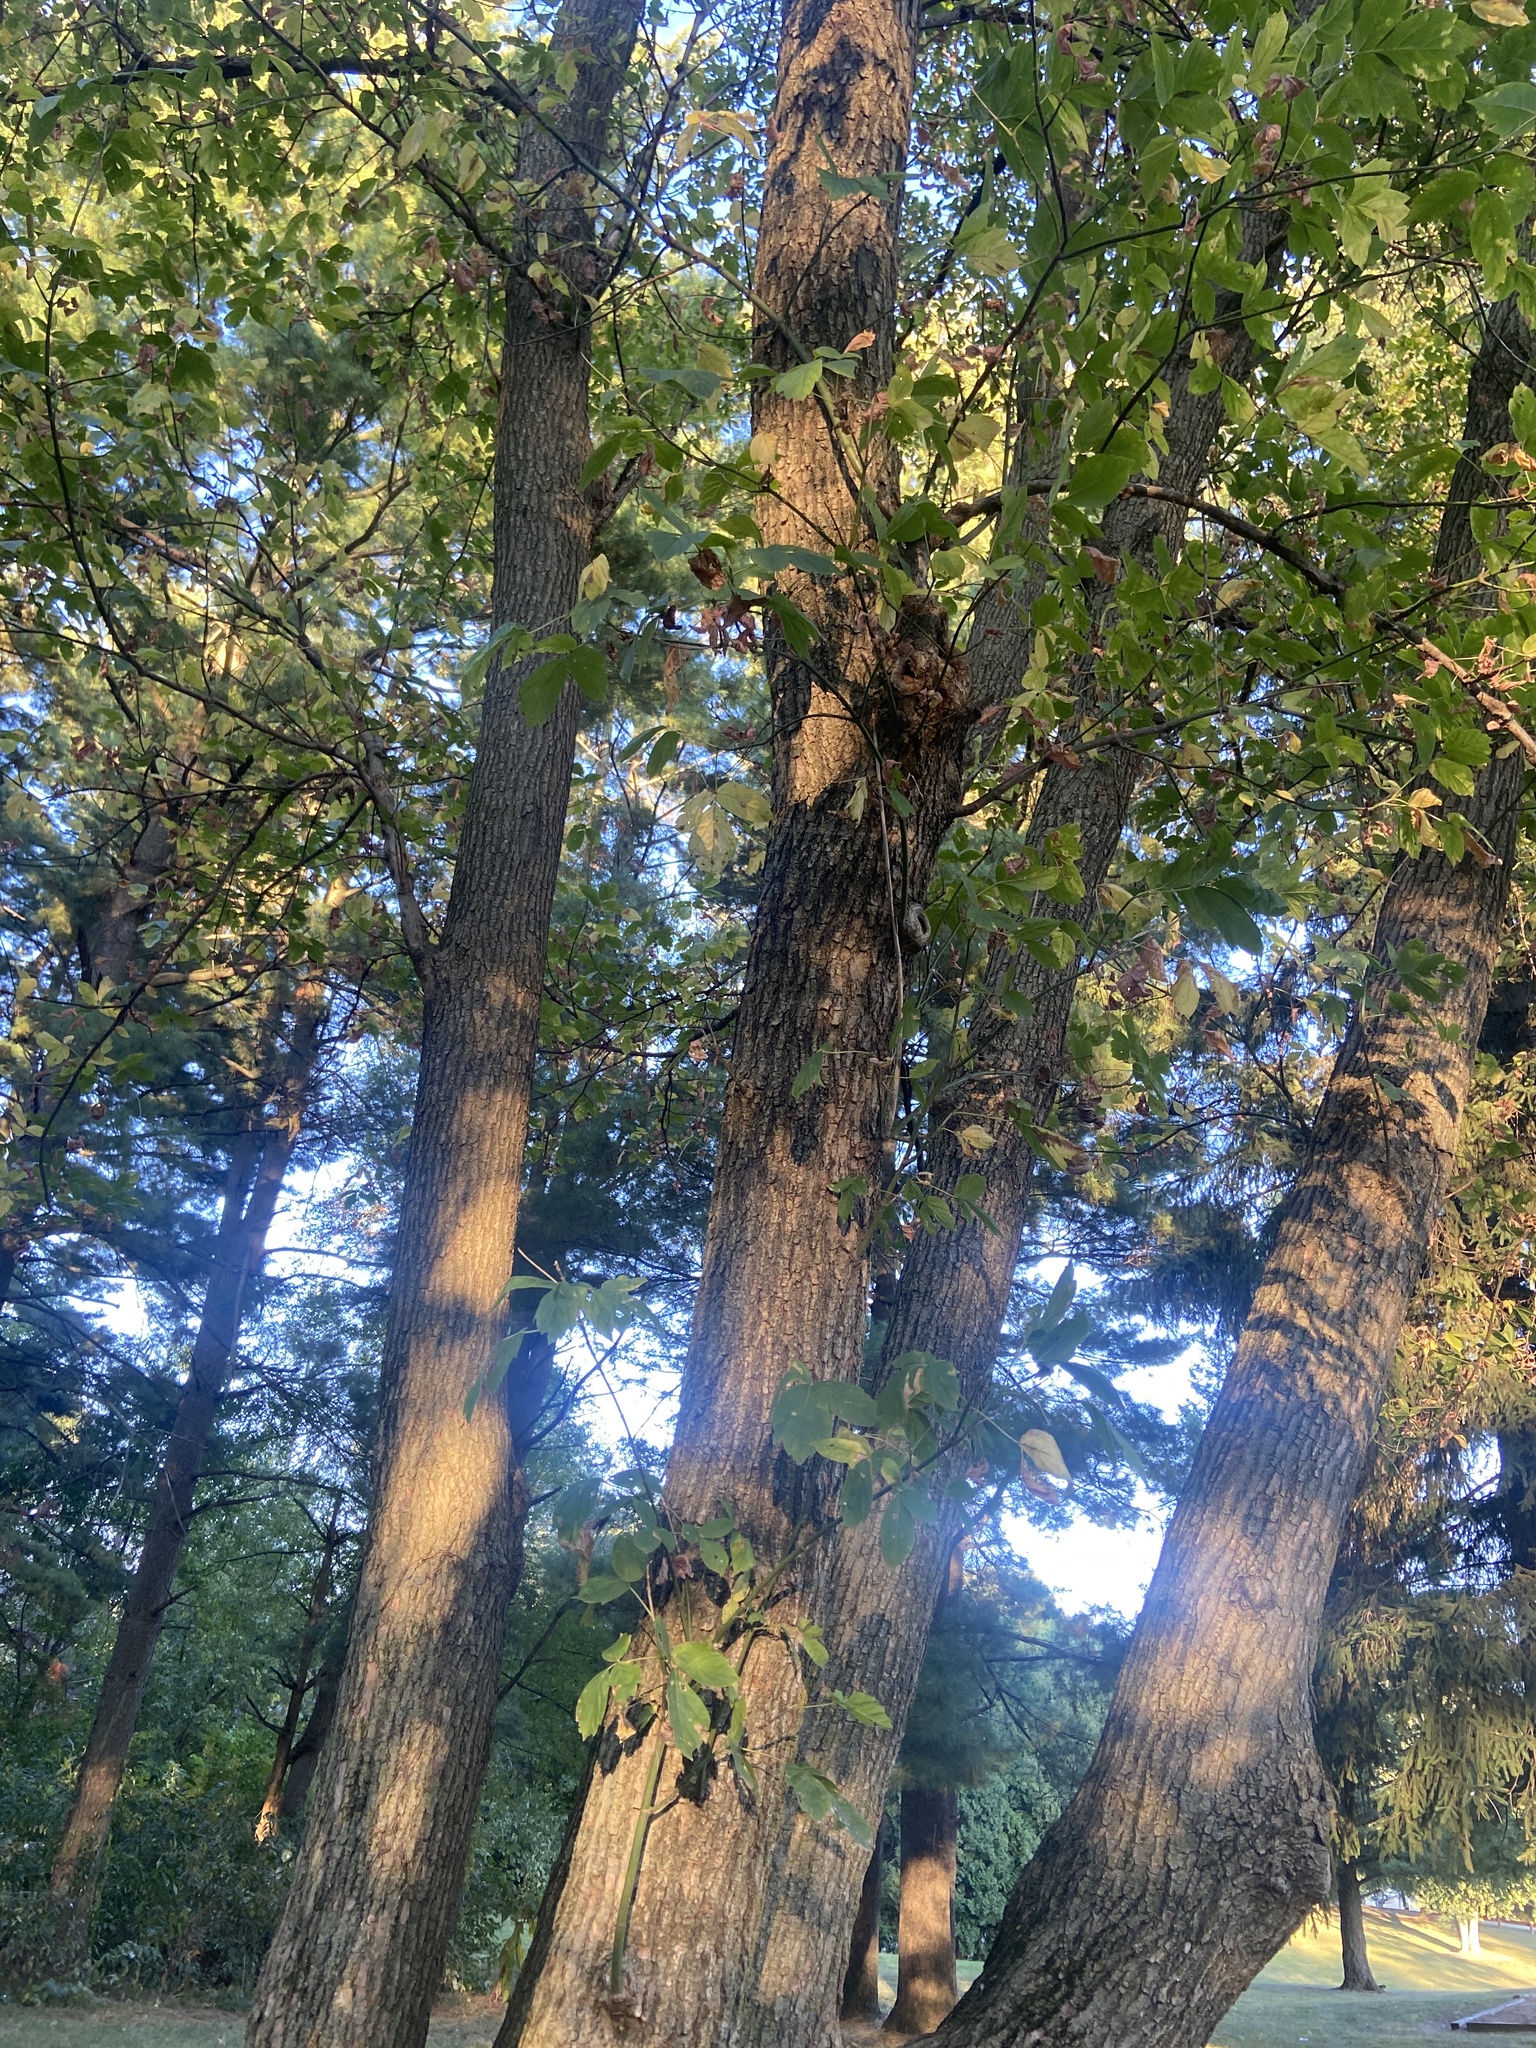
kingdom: Plantae
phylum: Tracheophyta
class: Magnoliopsida
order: Sapindales
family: Sapindaceae
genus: Acer
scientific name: Acer negundo
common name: Ashleaf maple
